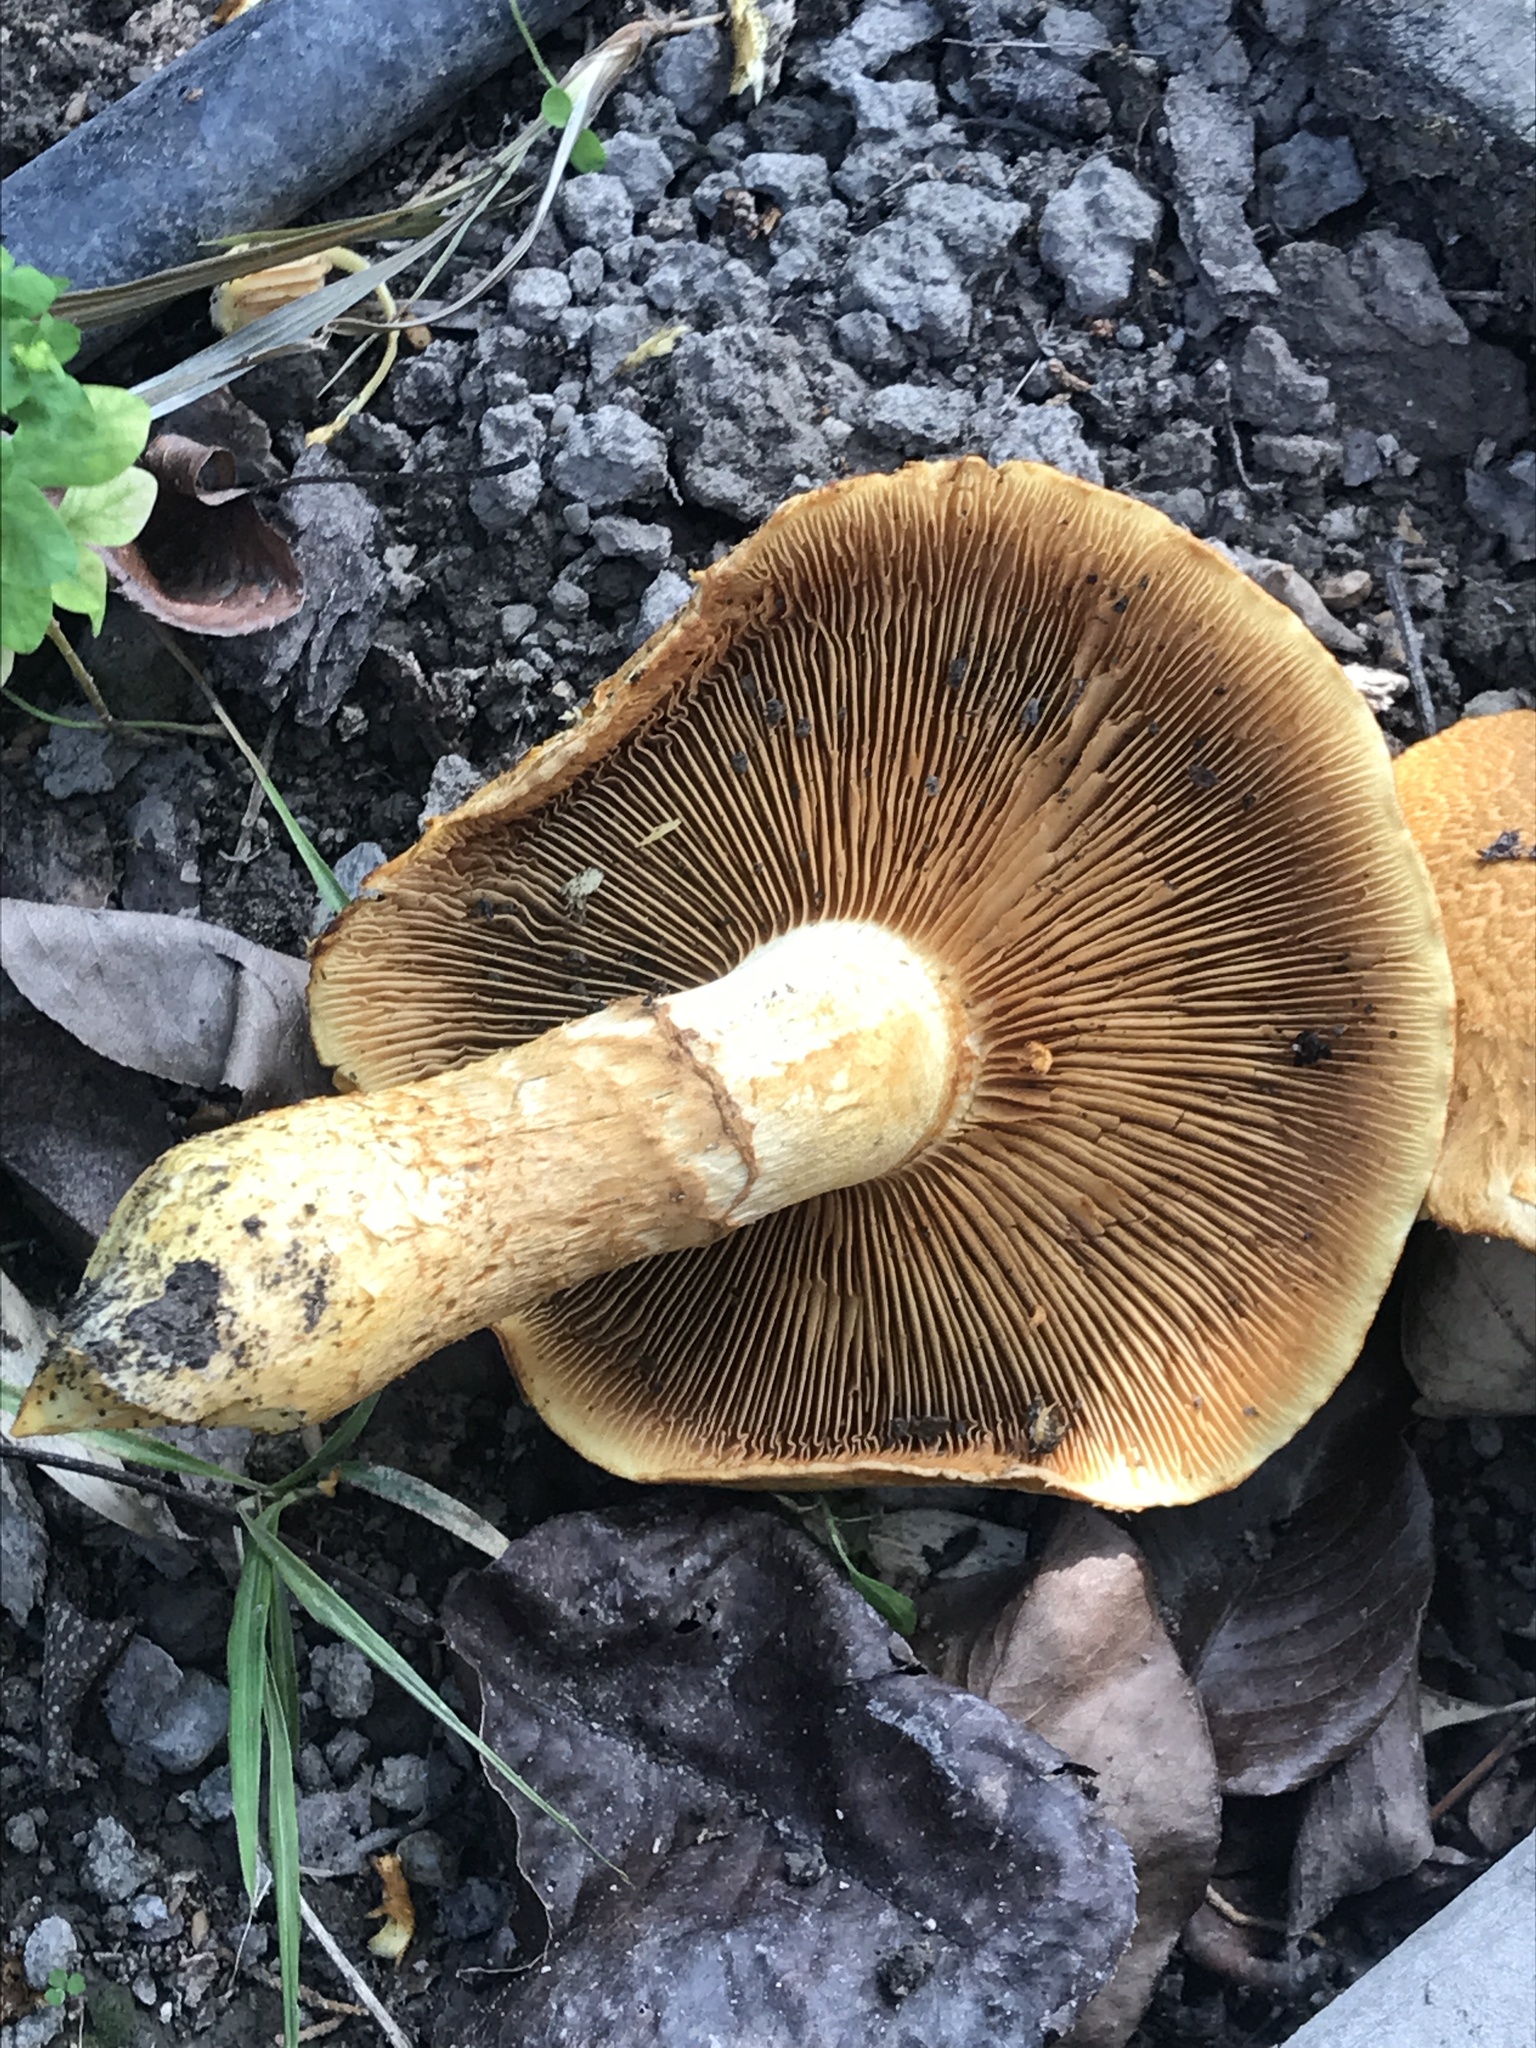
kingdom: Fungi
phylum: Basidiomycota
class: Agaricomycetes
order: Agaricales
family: Hymenogastraceae
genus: Gymnopilus
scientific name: Gymnopilus junonius
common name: Spectacular rustgill
